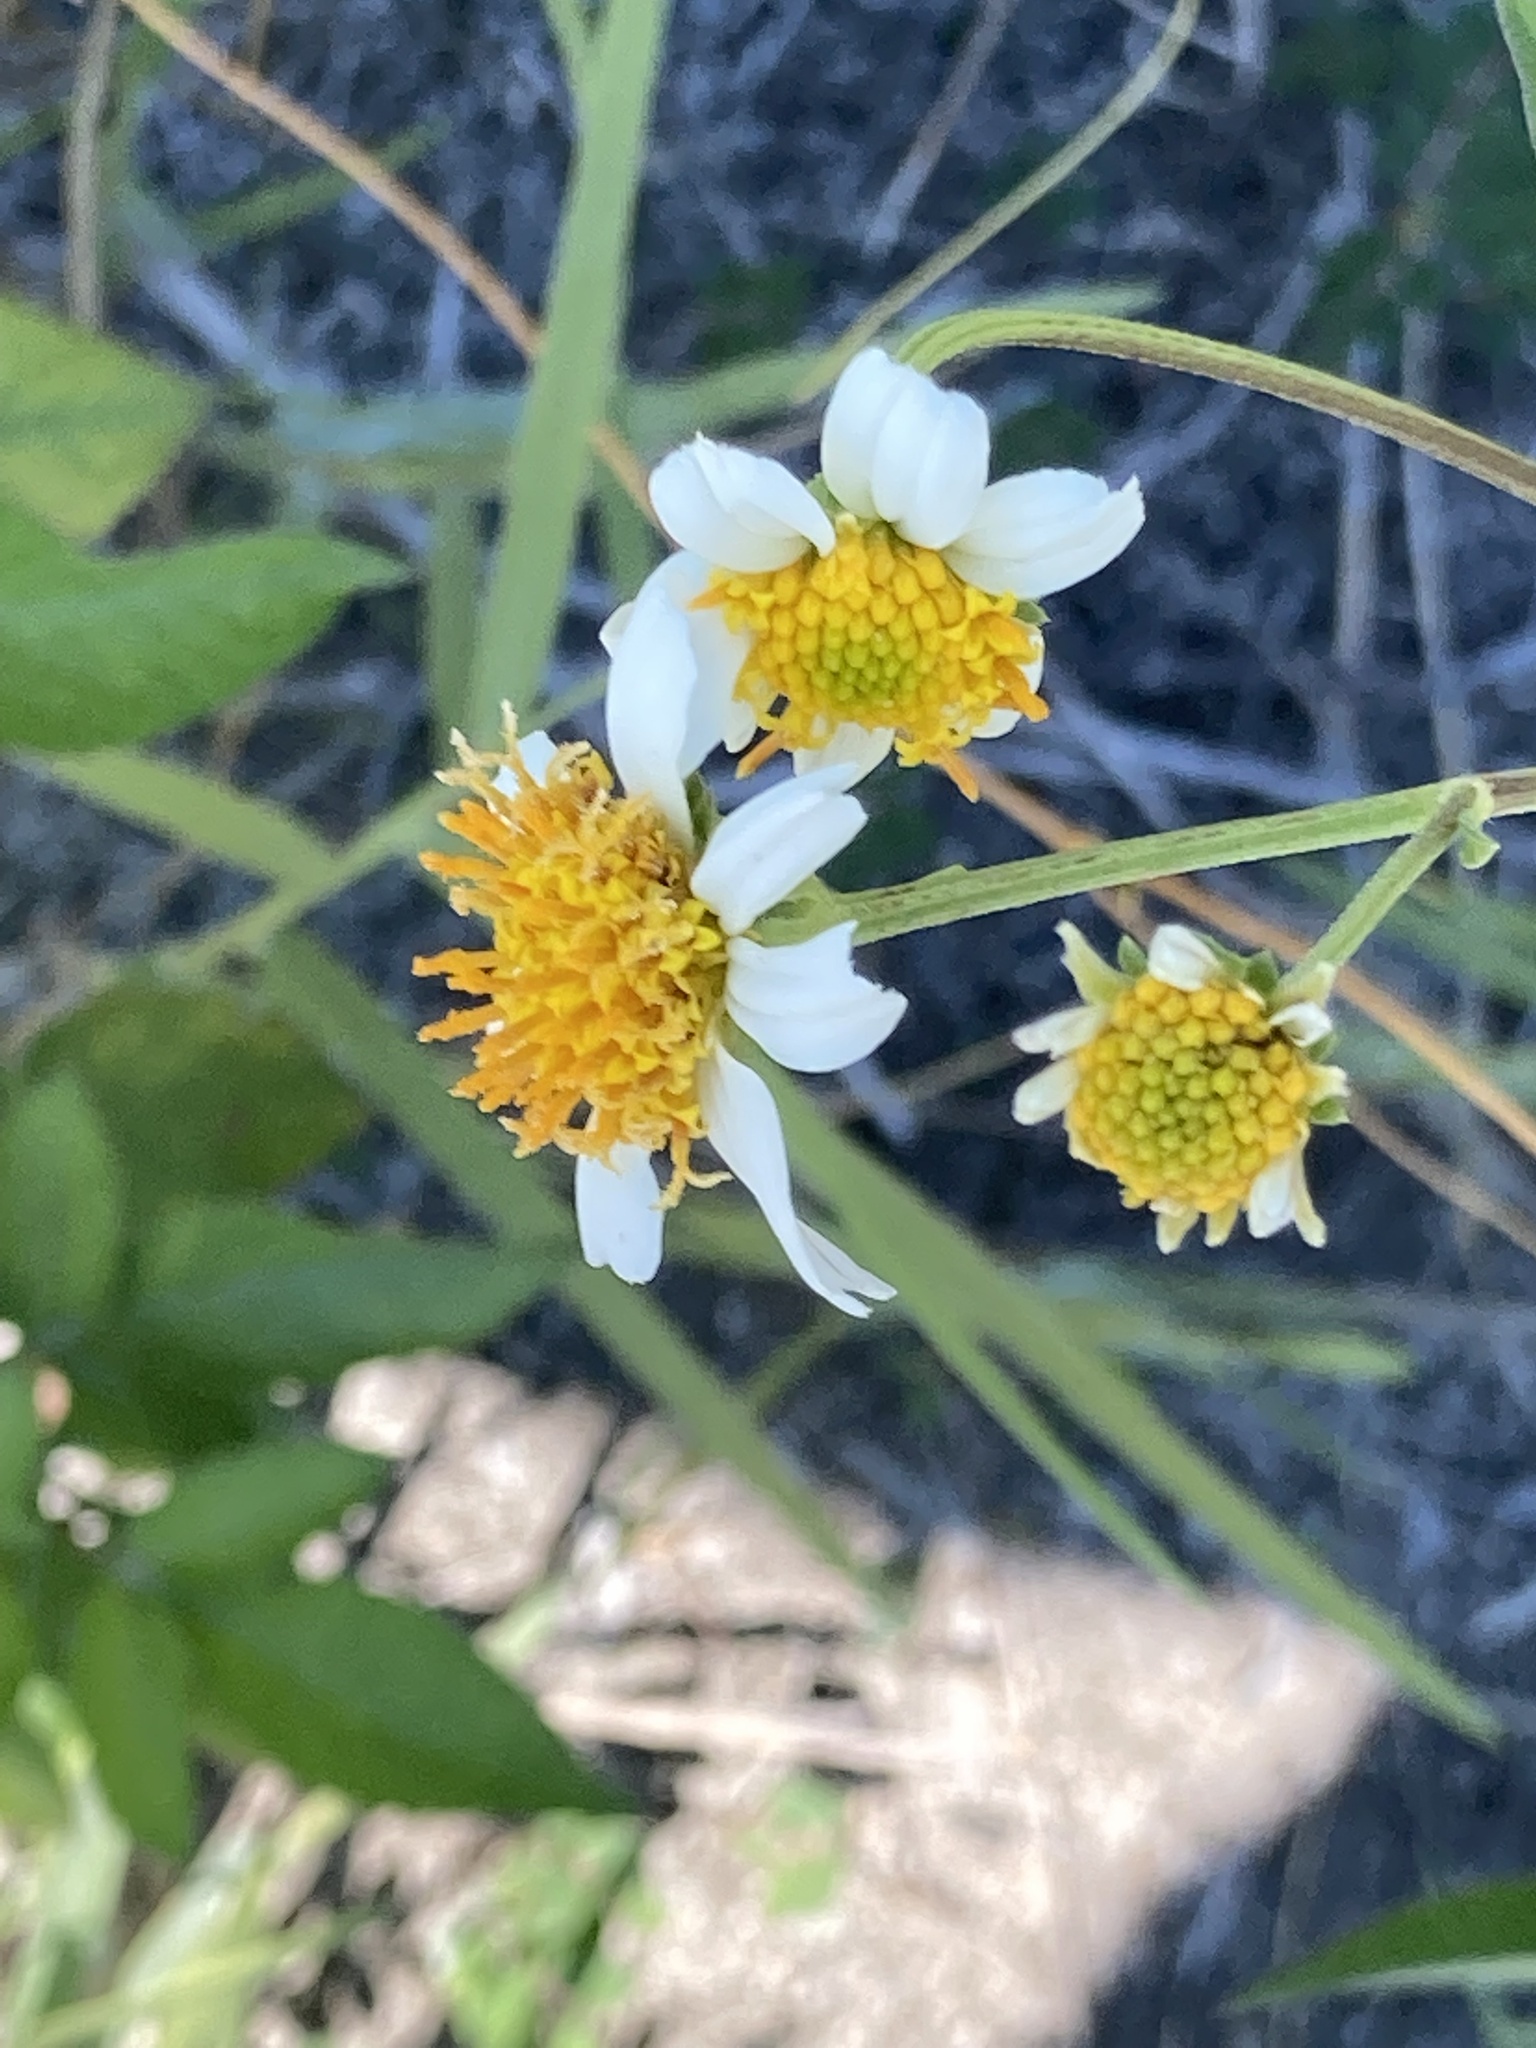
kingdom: Plantae
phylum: Tracheophyta
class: Magnoliopsida
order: Asterales
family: Asteraceae
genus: Bidens
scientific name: Bidens alba
